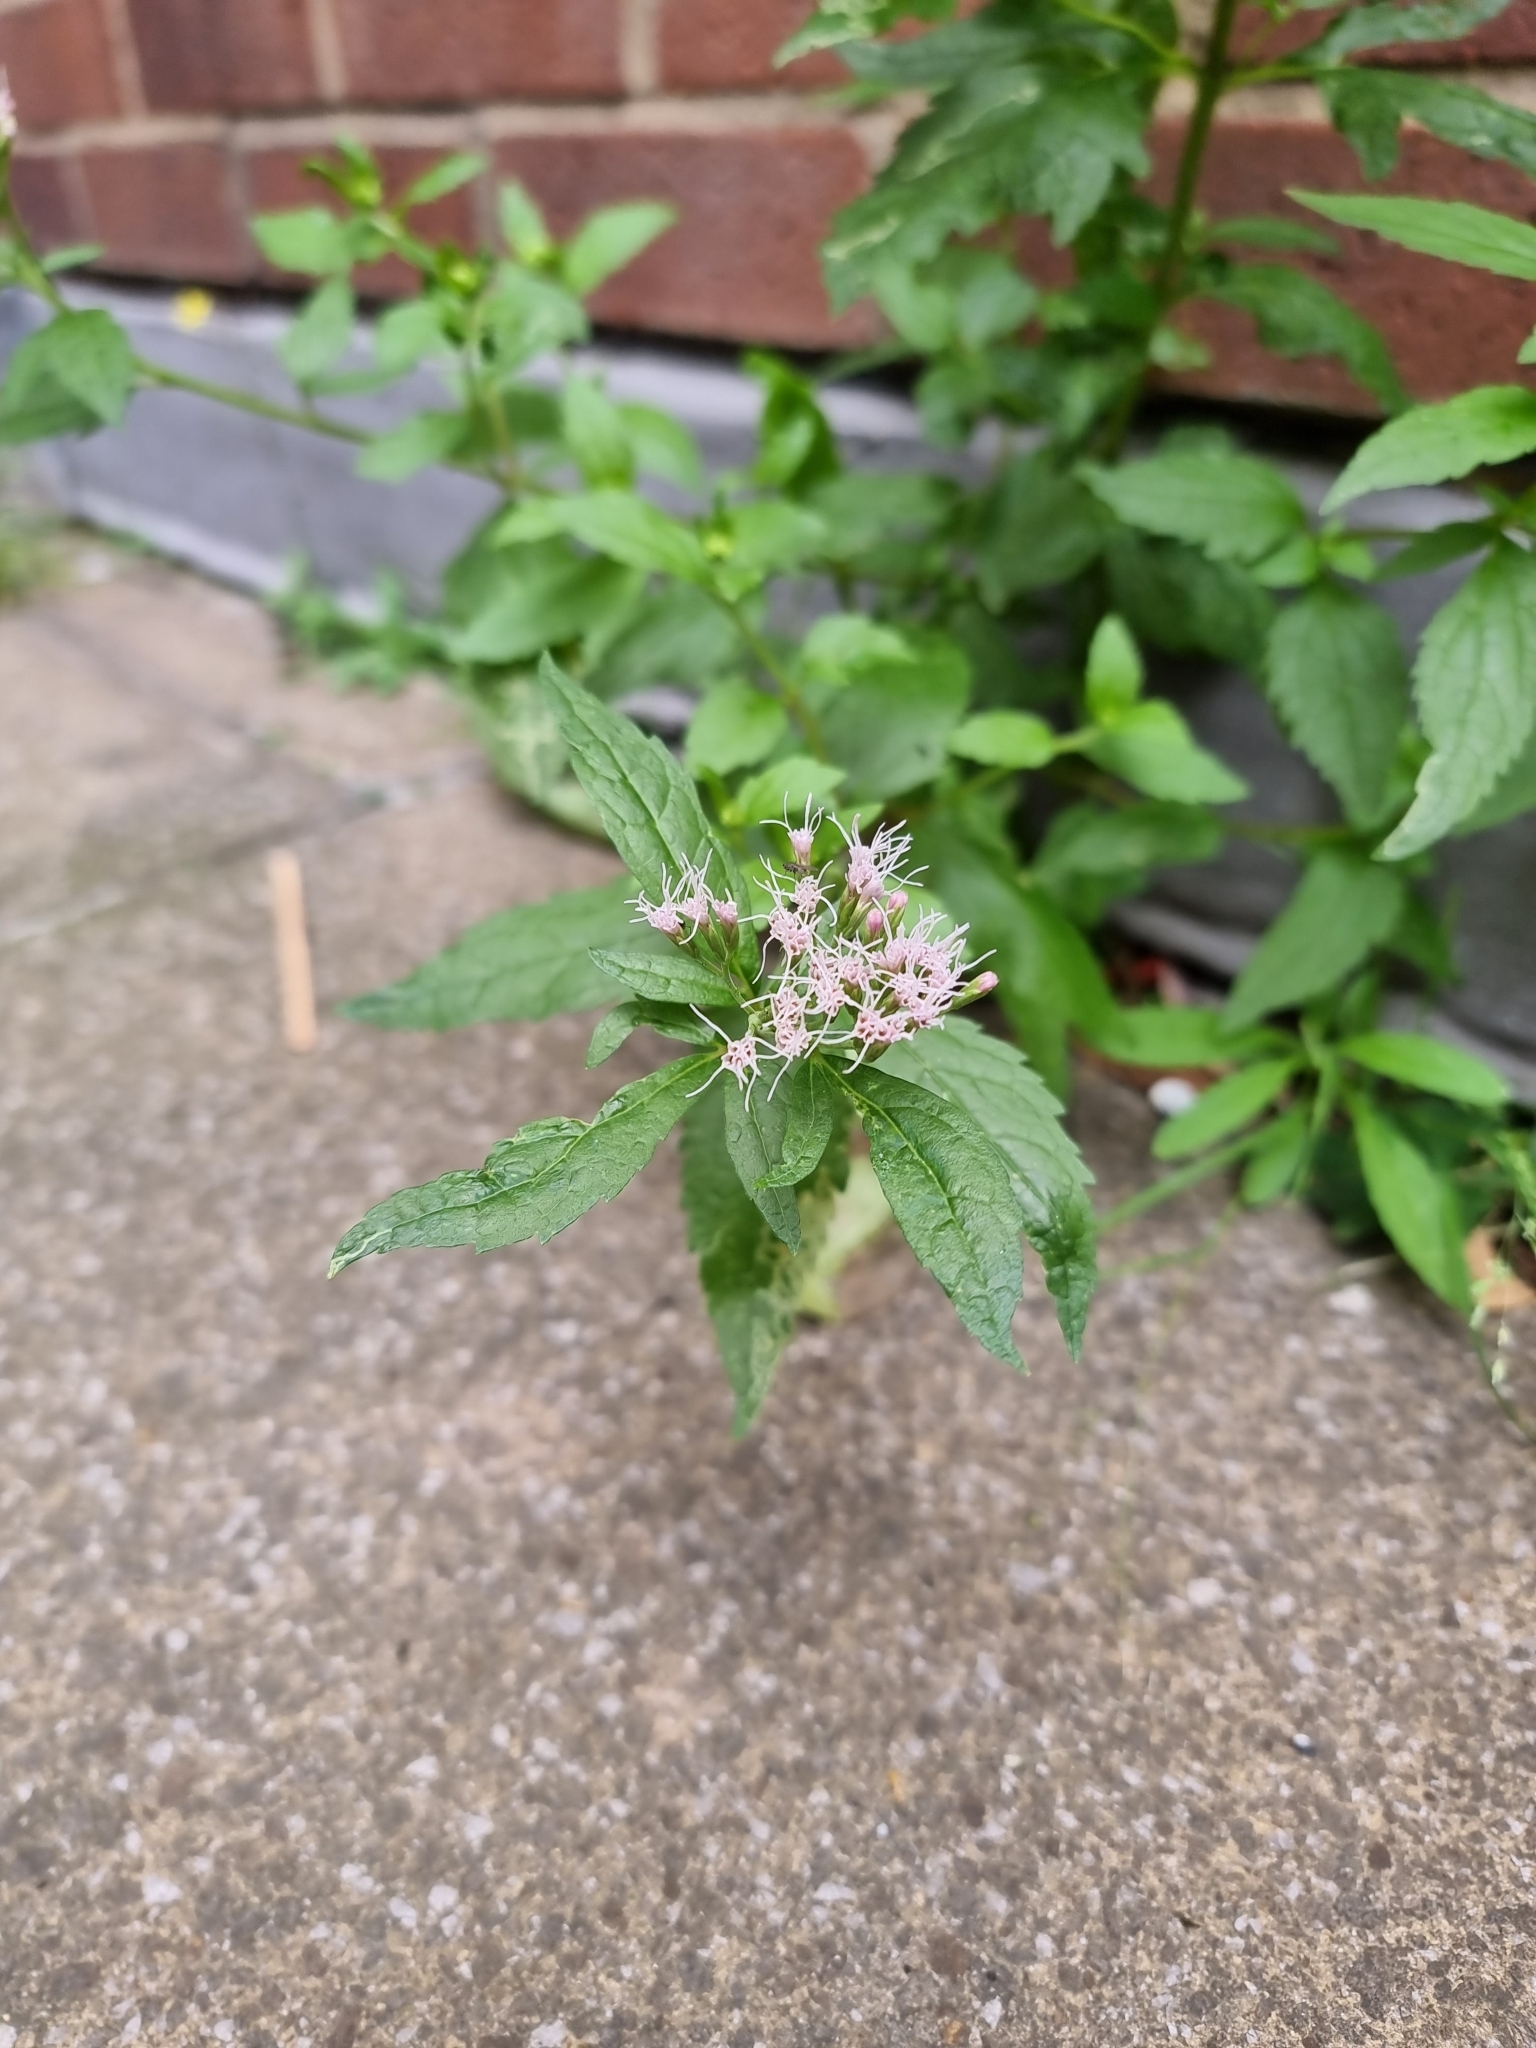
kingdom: Plantae
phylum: Tracheophyta
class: Magnoliopsida
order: Asterales
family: Asteraceae
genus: Eupatorium
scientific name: Eupatorium cannabinum
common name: Hemp-agrimony
